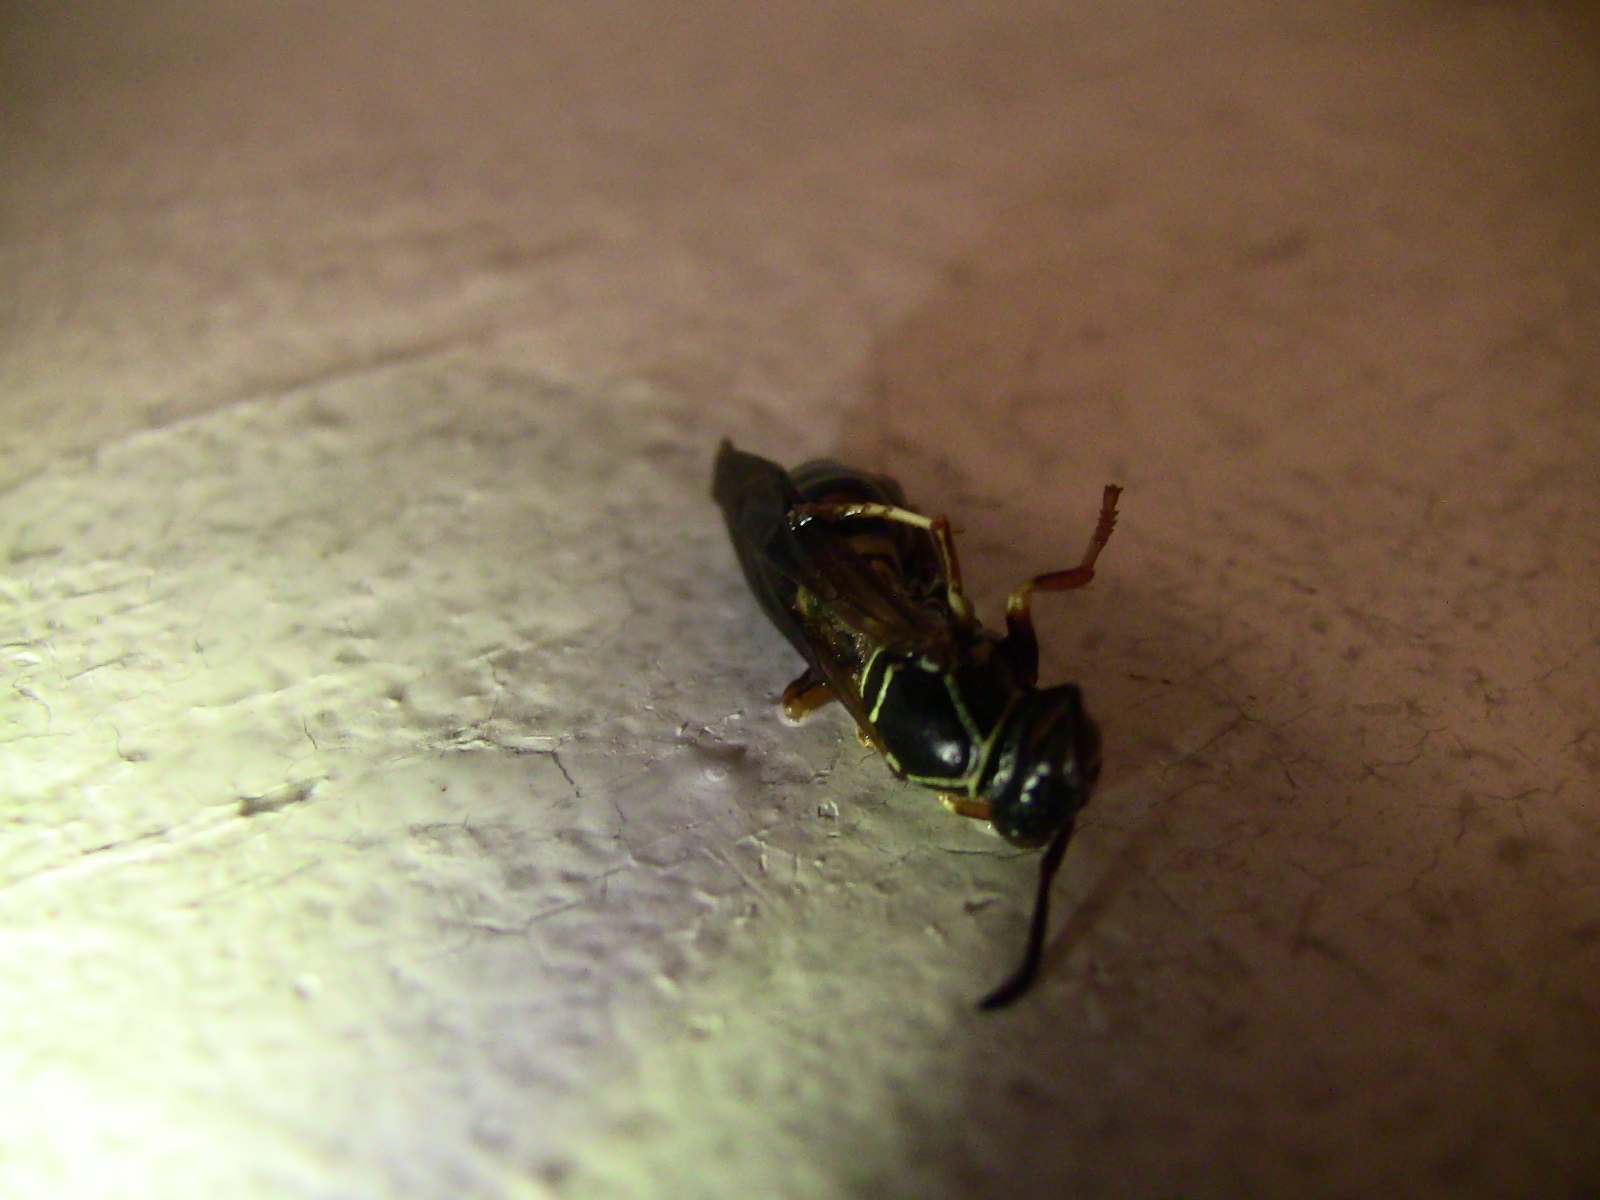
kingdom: Animalia
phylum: Arthropoda
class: Insecta
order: Hymenoptera
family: Eumenidae
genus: Polistes
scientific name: Polistes fuscatus
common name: Dark paper wasp
